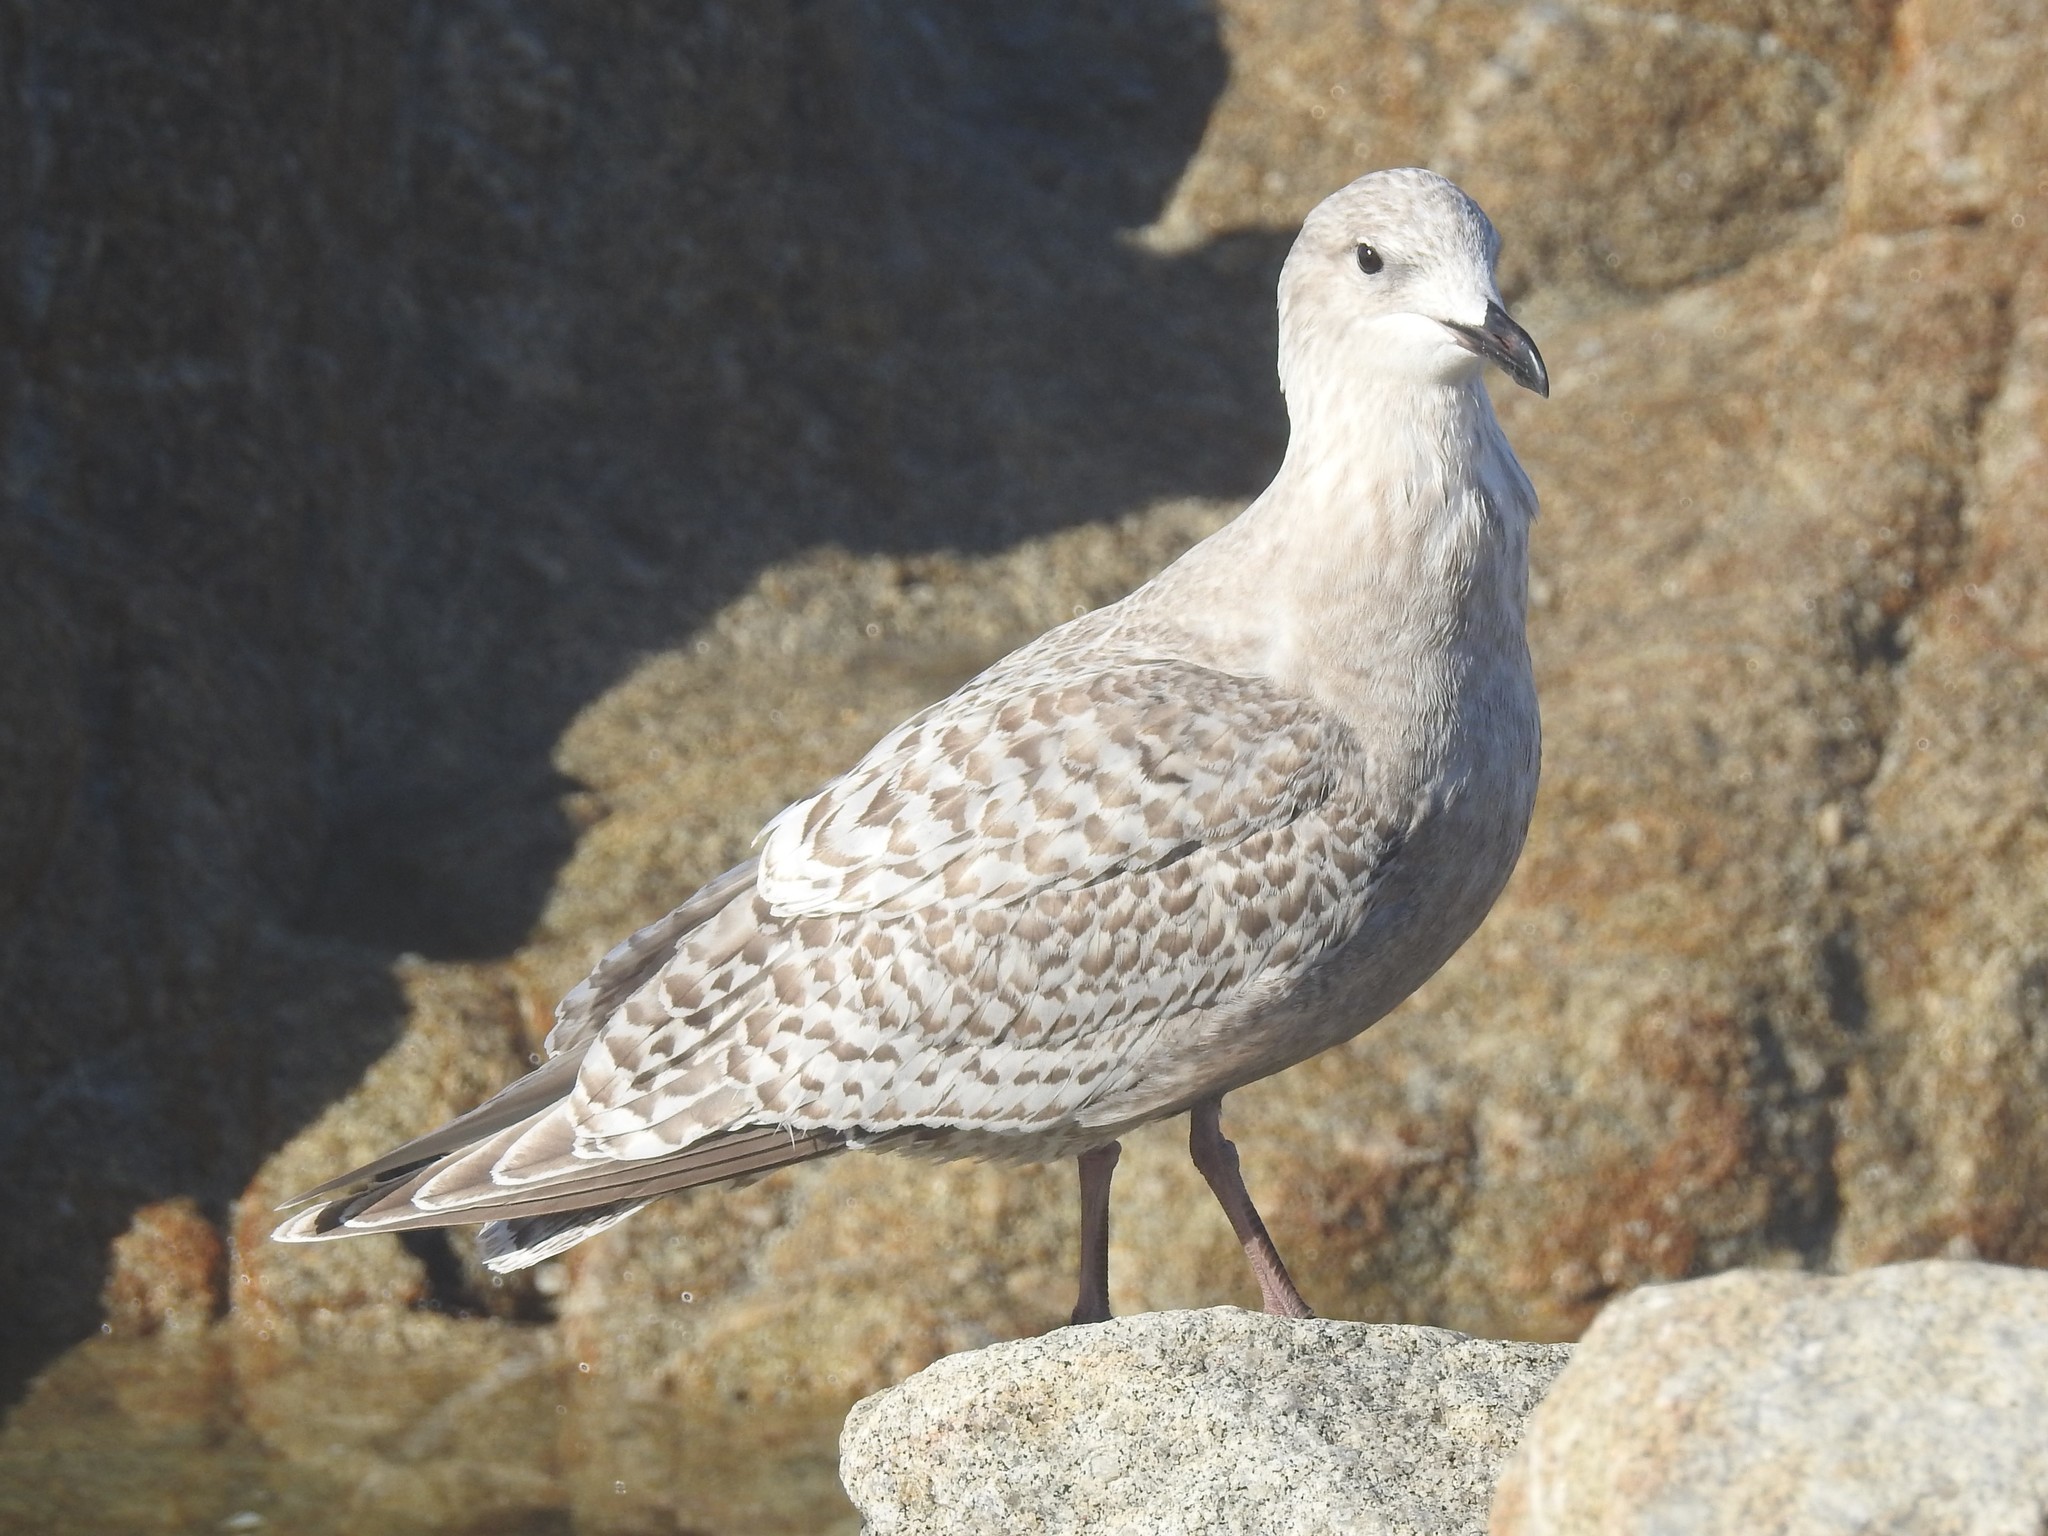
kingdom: Animalia
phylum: Chordata
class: Aves
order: Charadriiformes
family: Laridae
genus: Larus
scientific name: Larus glaucoides
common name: Iceland gull
